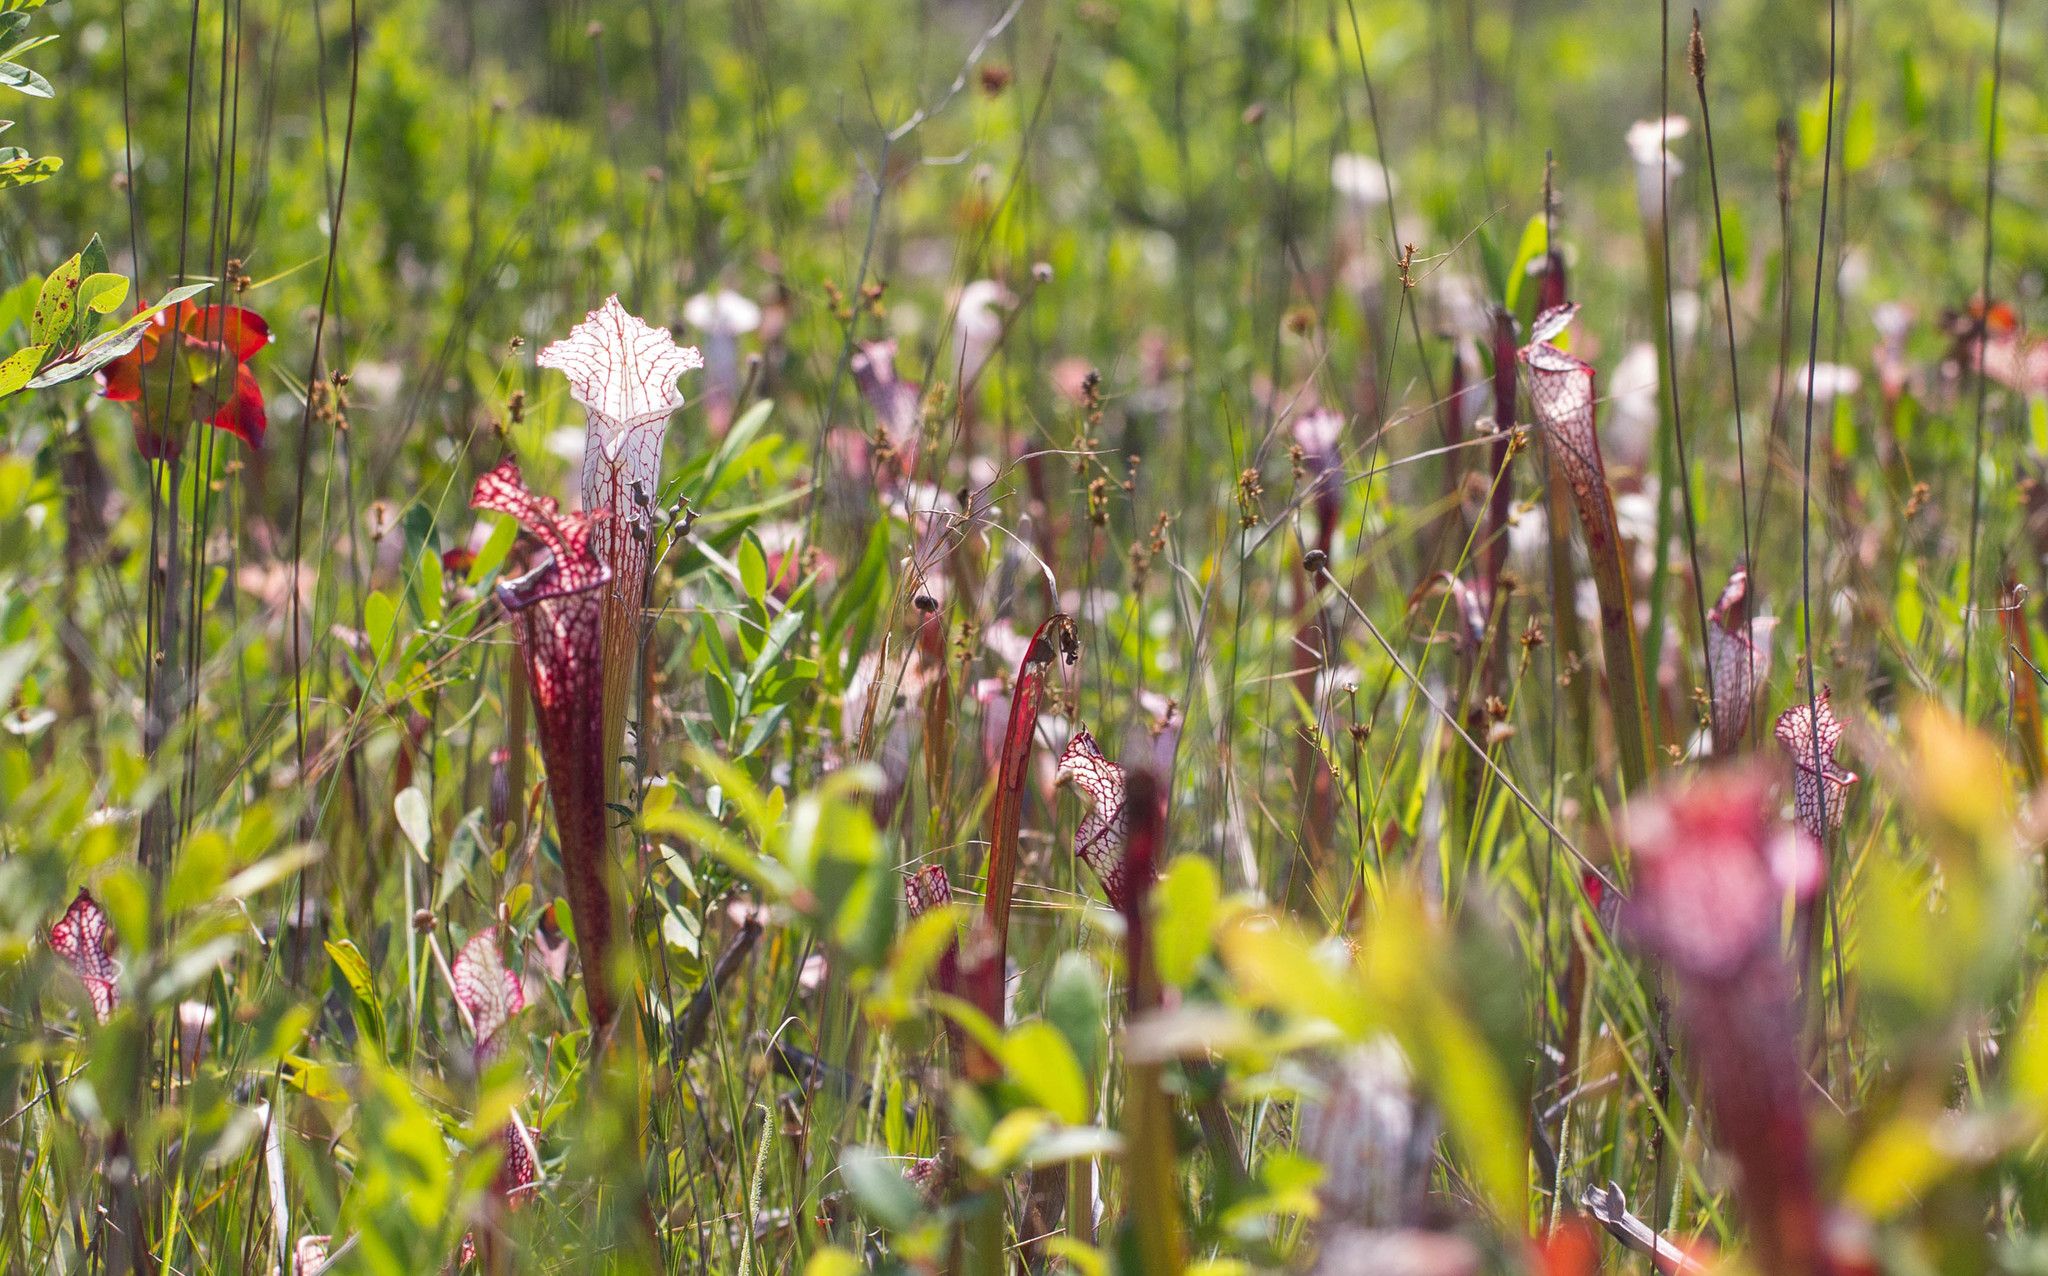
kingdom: Plantae
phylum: Tracheophyta
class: Magnoliopsida
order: Ericales
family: Sarraceniaceae
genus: Sarracenia
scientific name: Sarracenia leucophylla
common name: Purple trumpetleaf
